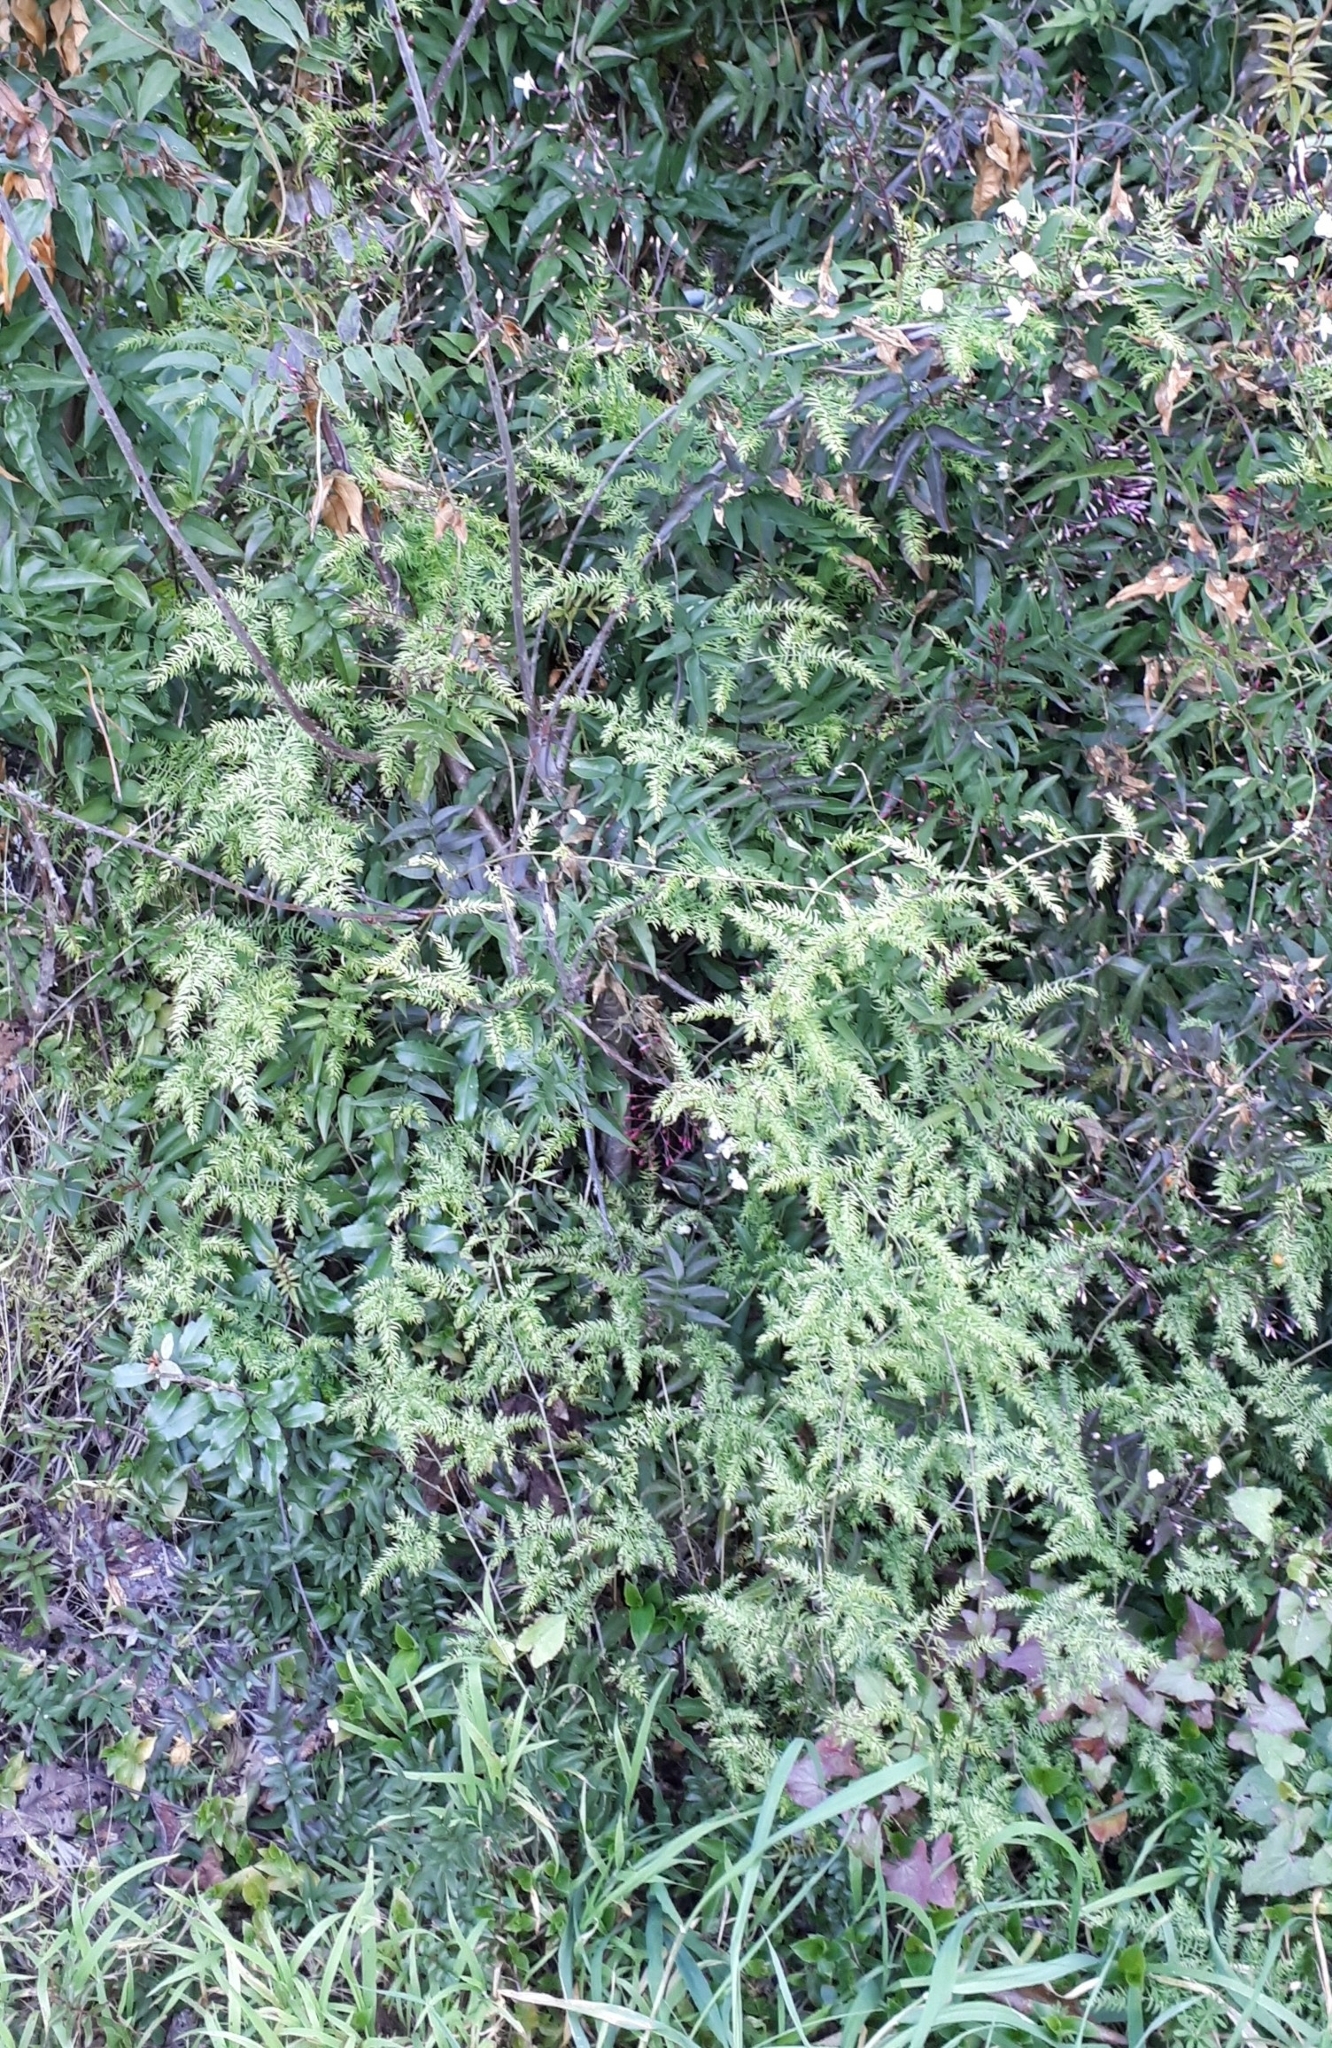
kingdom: Plantae
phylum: Tracheophyta
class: Liliopsida
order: Asparagales
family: Asparagaceae
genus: Asparagus
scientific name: Asparagus scandens
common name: Asparagus-fern
